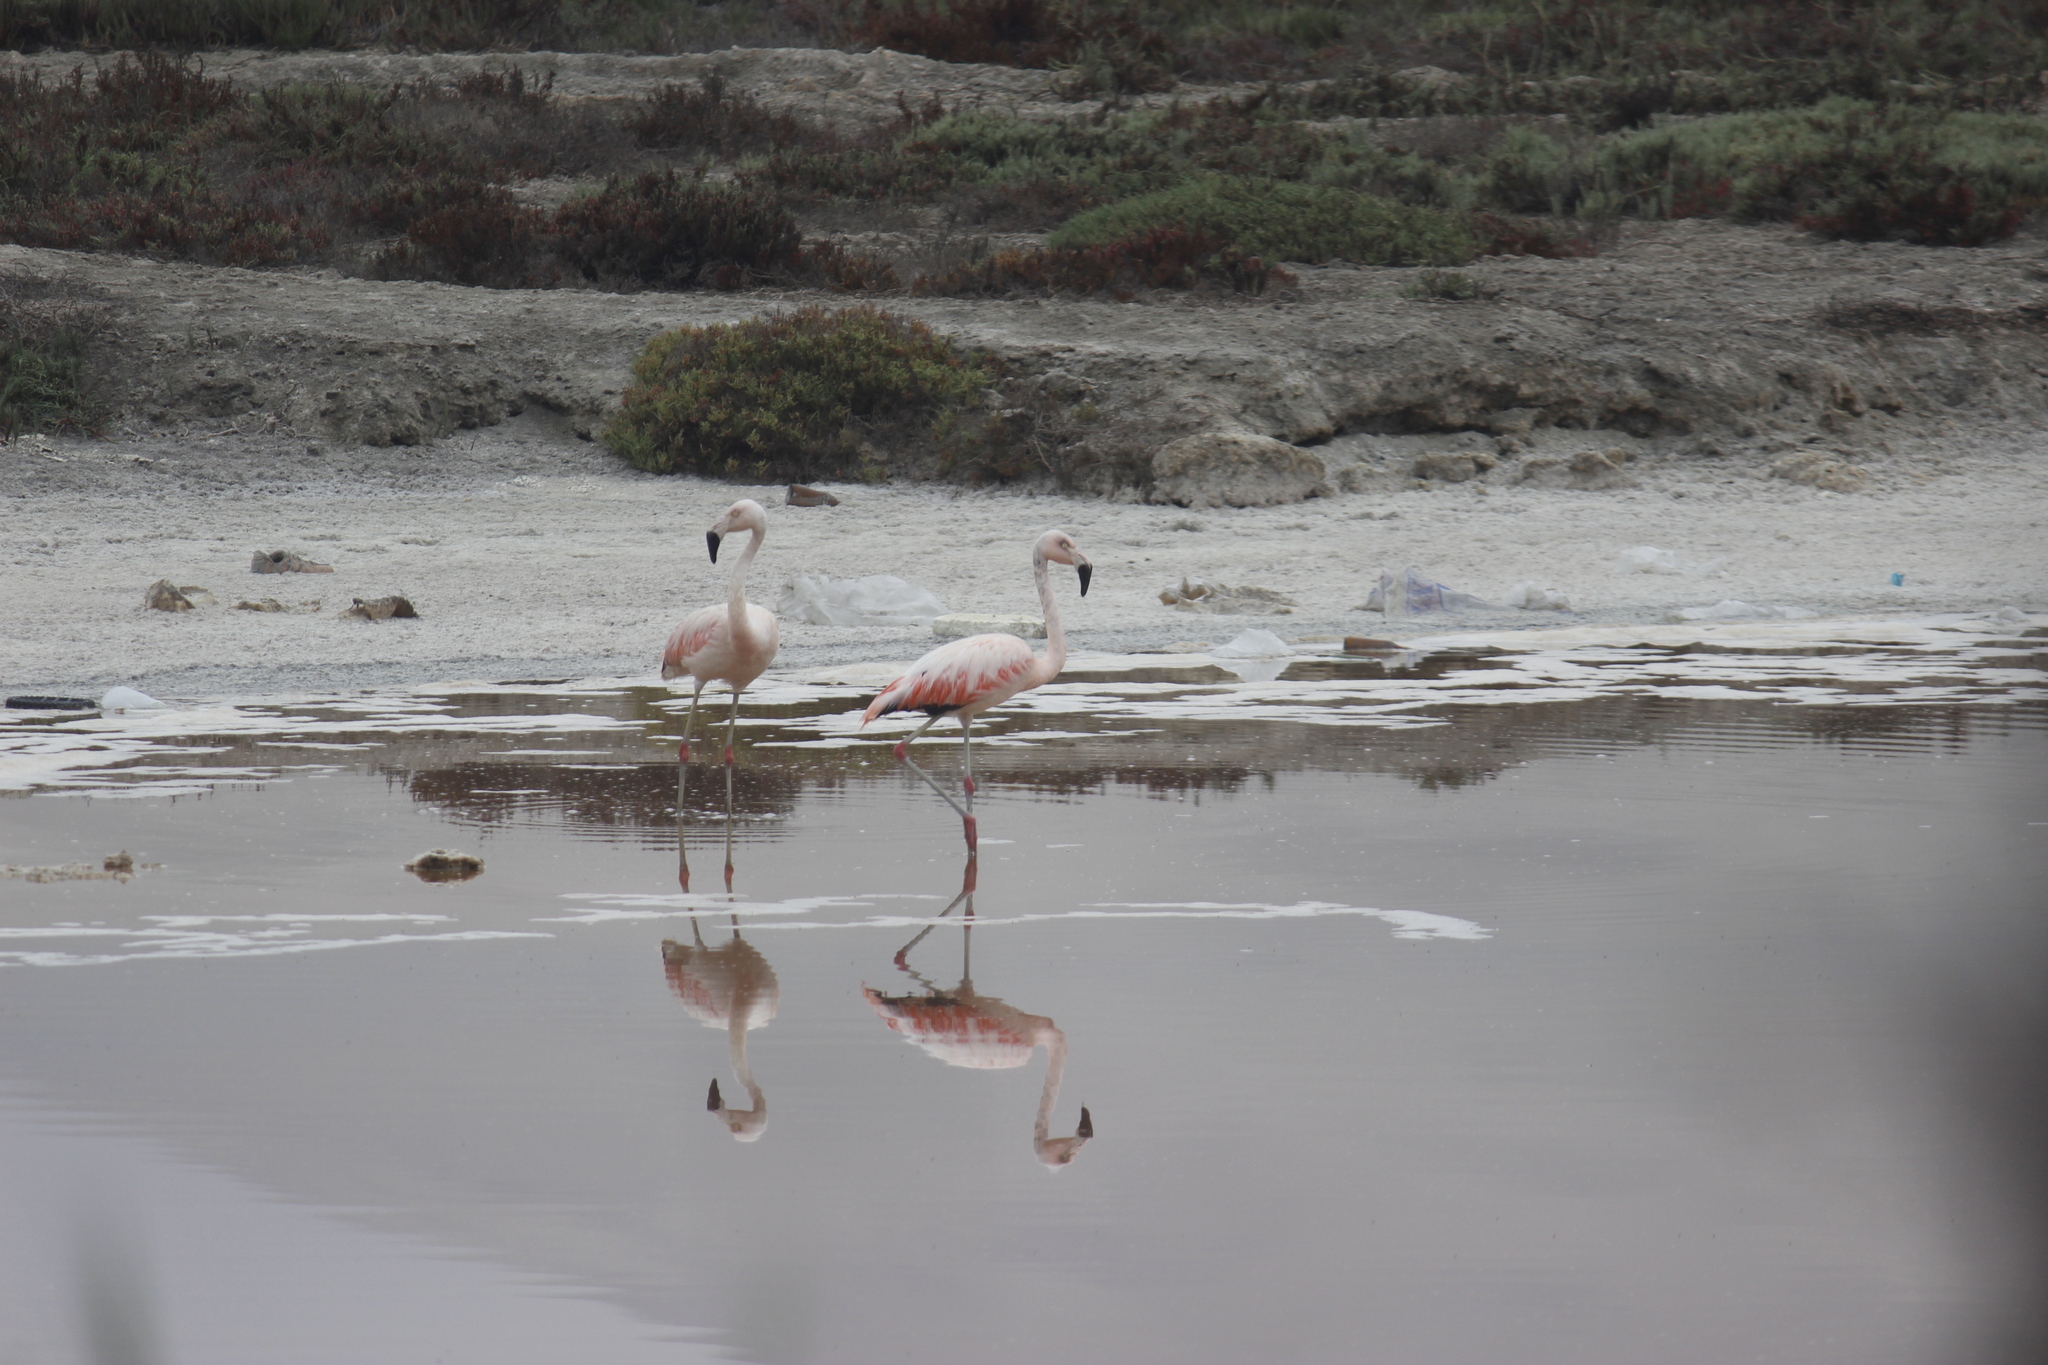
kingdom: Animalia
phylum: Chordata
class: Aves
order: Phoenicopteriformes
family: Phoenicopteridae
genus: Phoenicopterus
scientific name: Phoenicopterus chilensis
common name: Chilean flamingo
